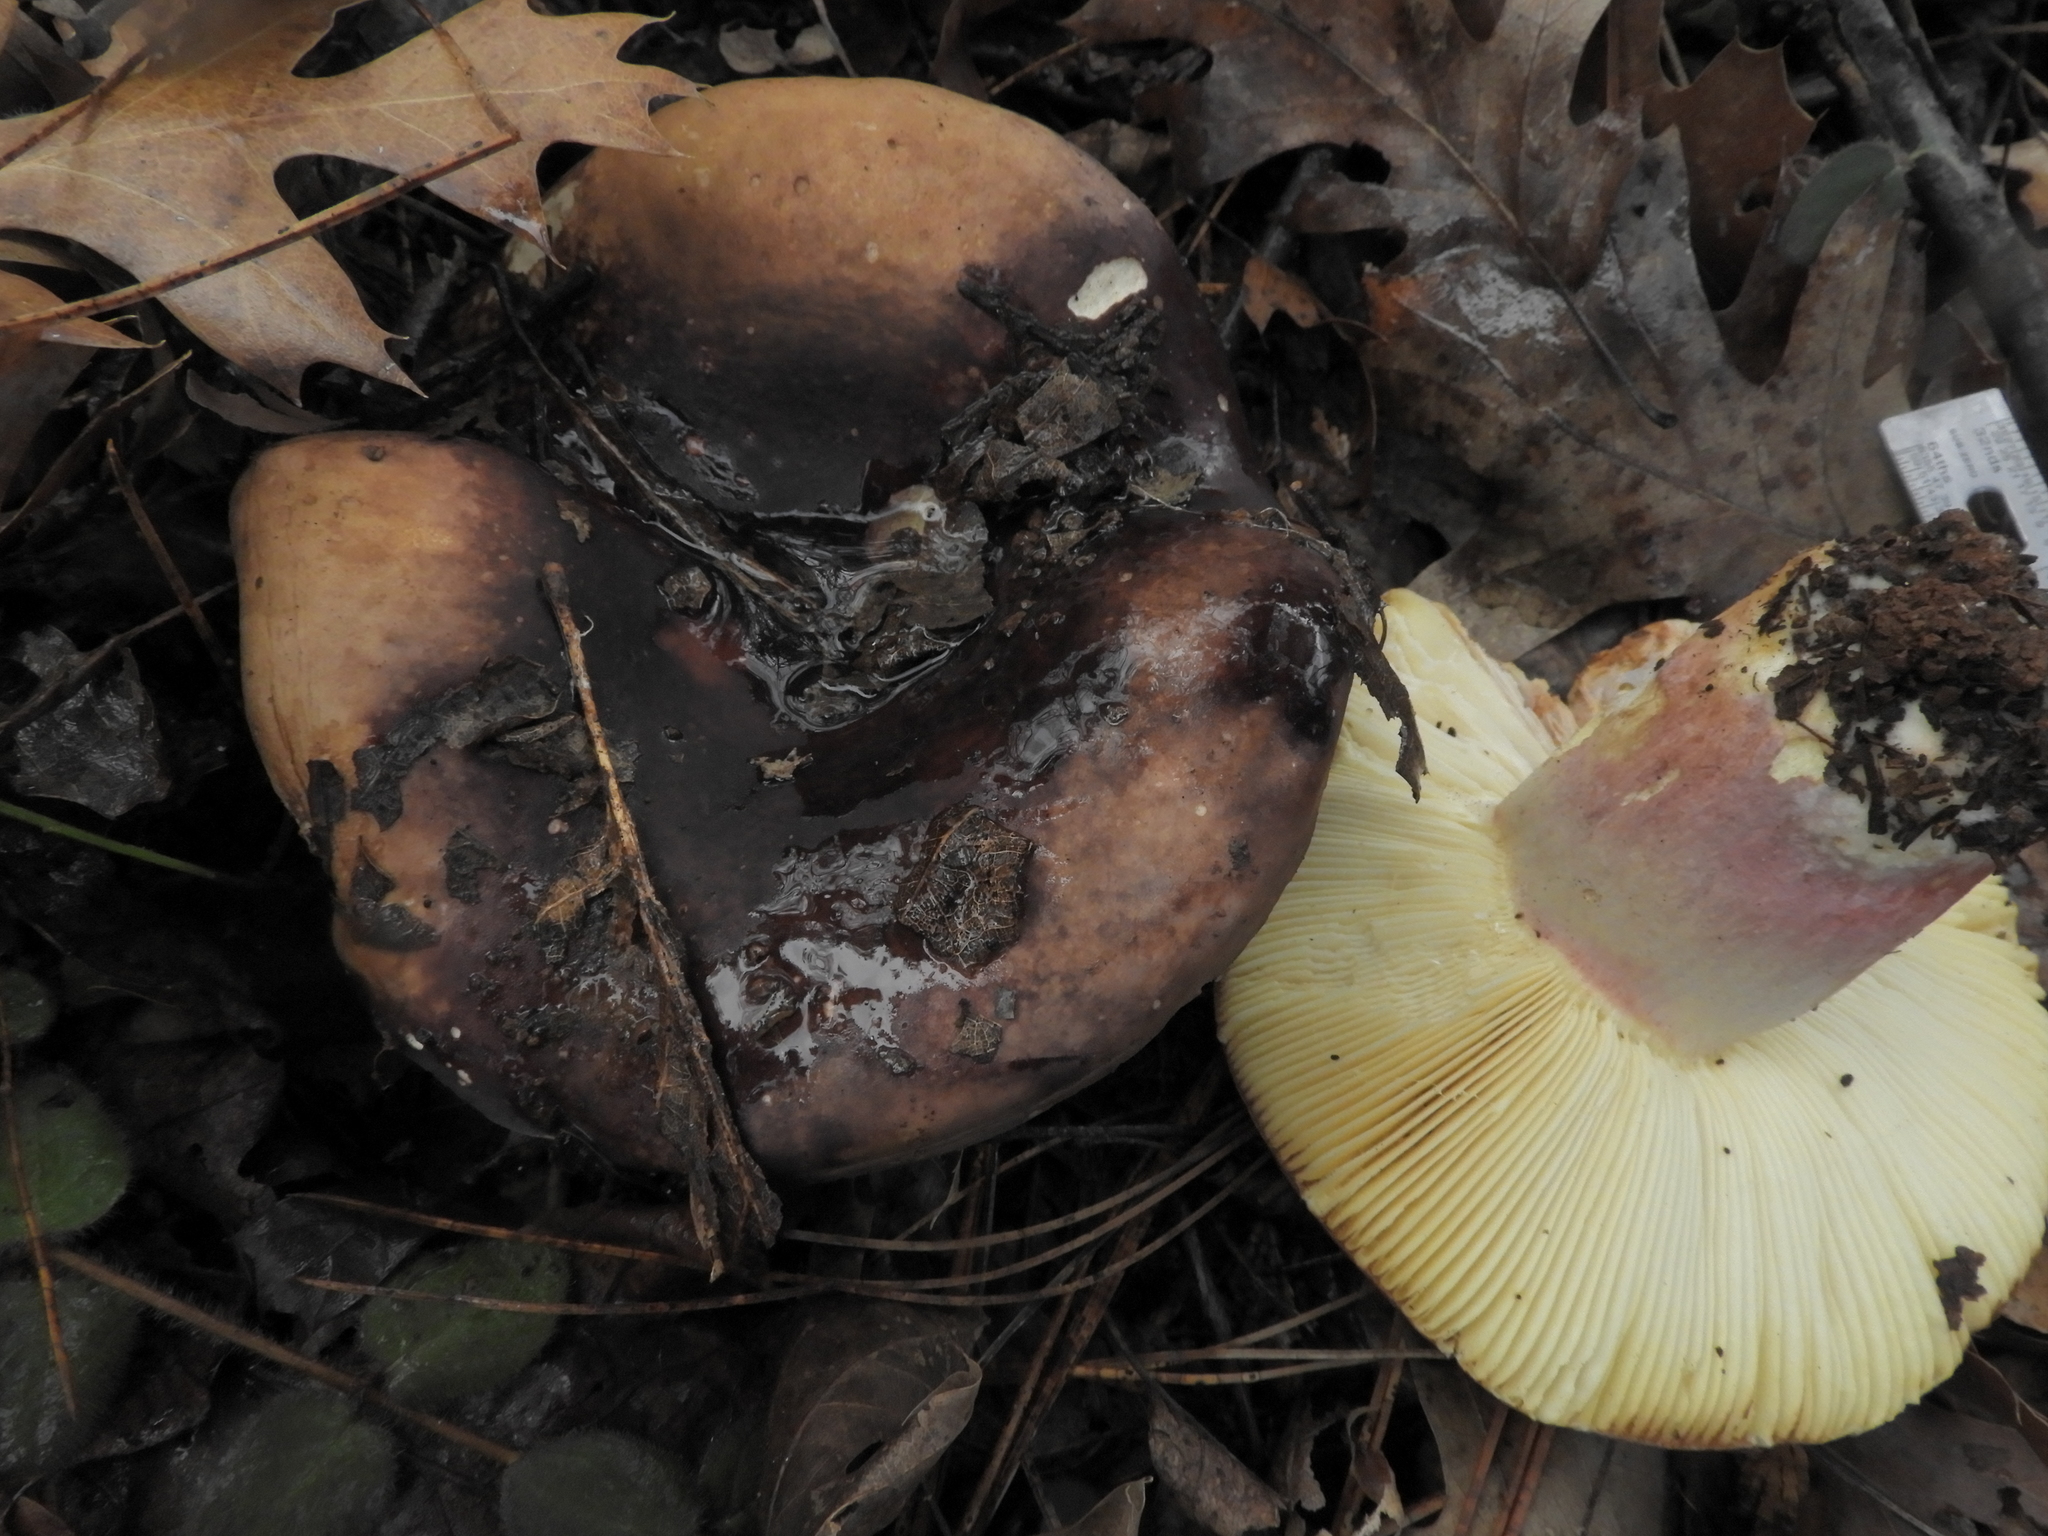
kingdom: Fungi
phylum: Basidiomycota
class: Agaricomycetes
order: Russulales
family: Russulaceae
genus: Russula
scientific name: Russula xerampelina
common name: Crab brittlegill
